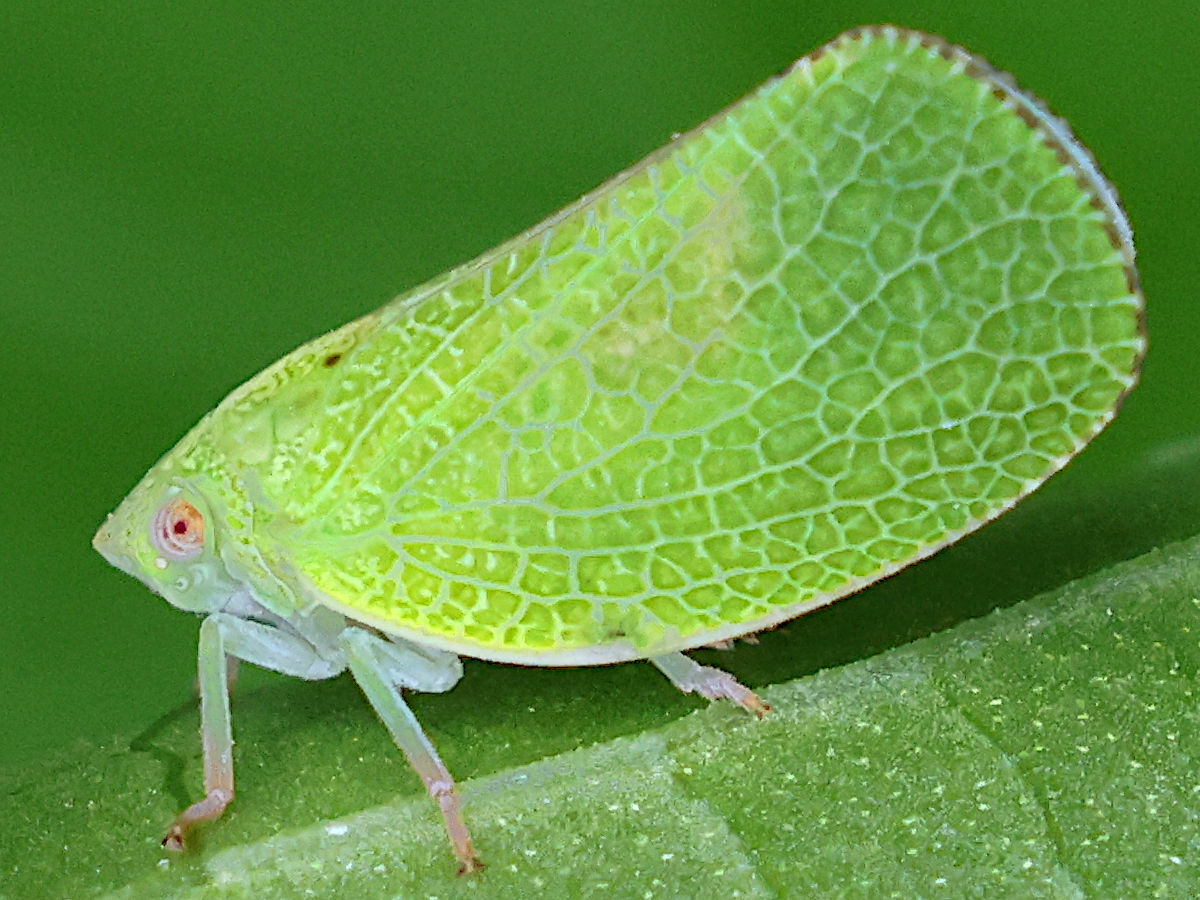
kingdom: Animalia
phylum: Arthropoda
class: Insecta
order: Hemiptera
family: Acanaloniidae
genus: Acanalonia
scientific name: Acanalonia conica
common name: Green cone-headed planthopper
